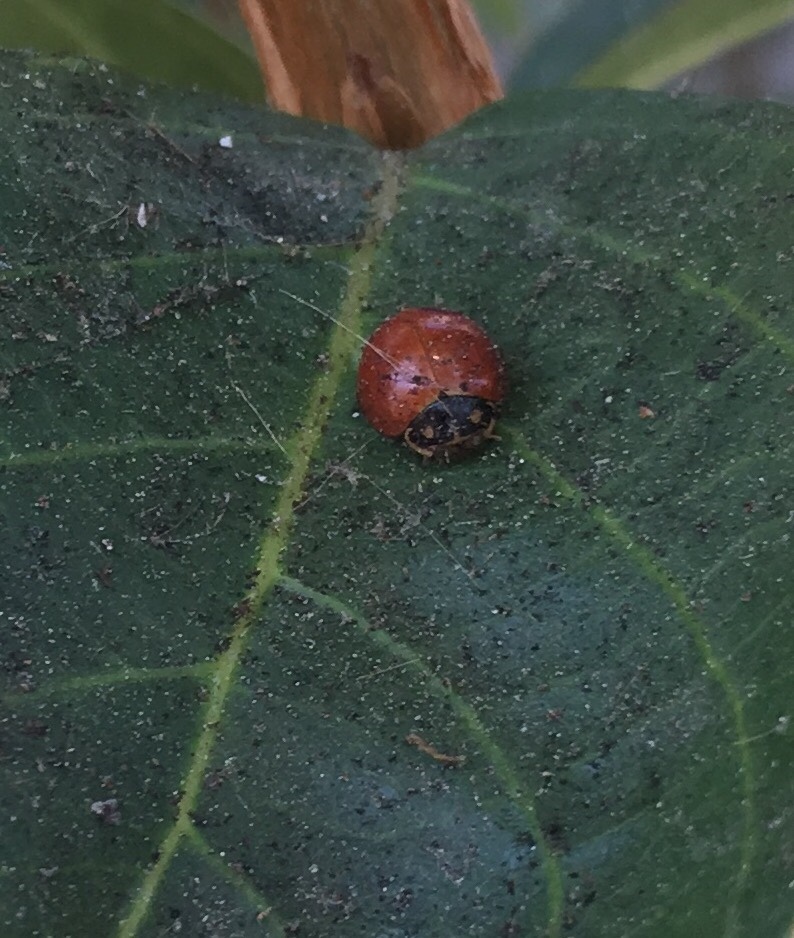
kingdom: Animalia
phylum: Arthropoda
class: Insecta
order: Coleoptera
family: Coccinellidae
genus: Cycloneda
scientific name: Cycloneda sanguinea
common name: Ladybird beetle
